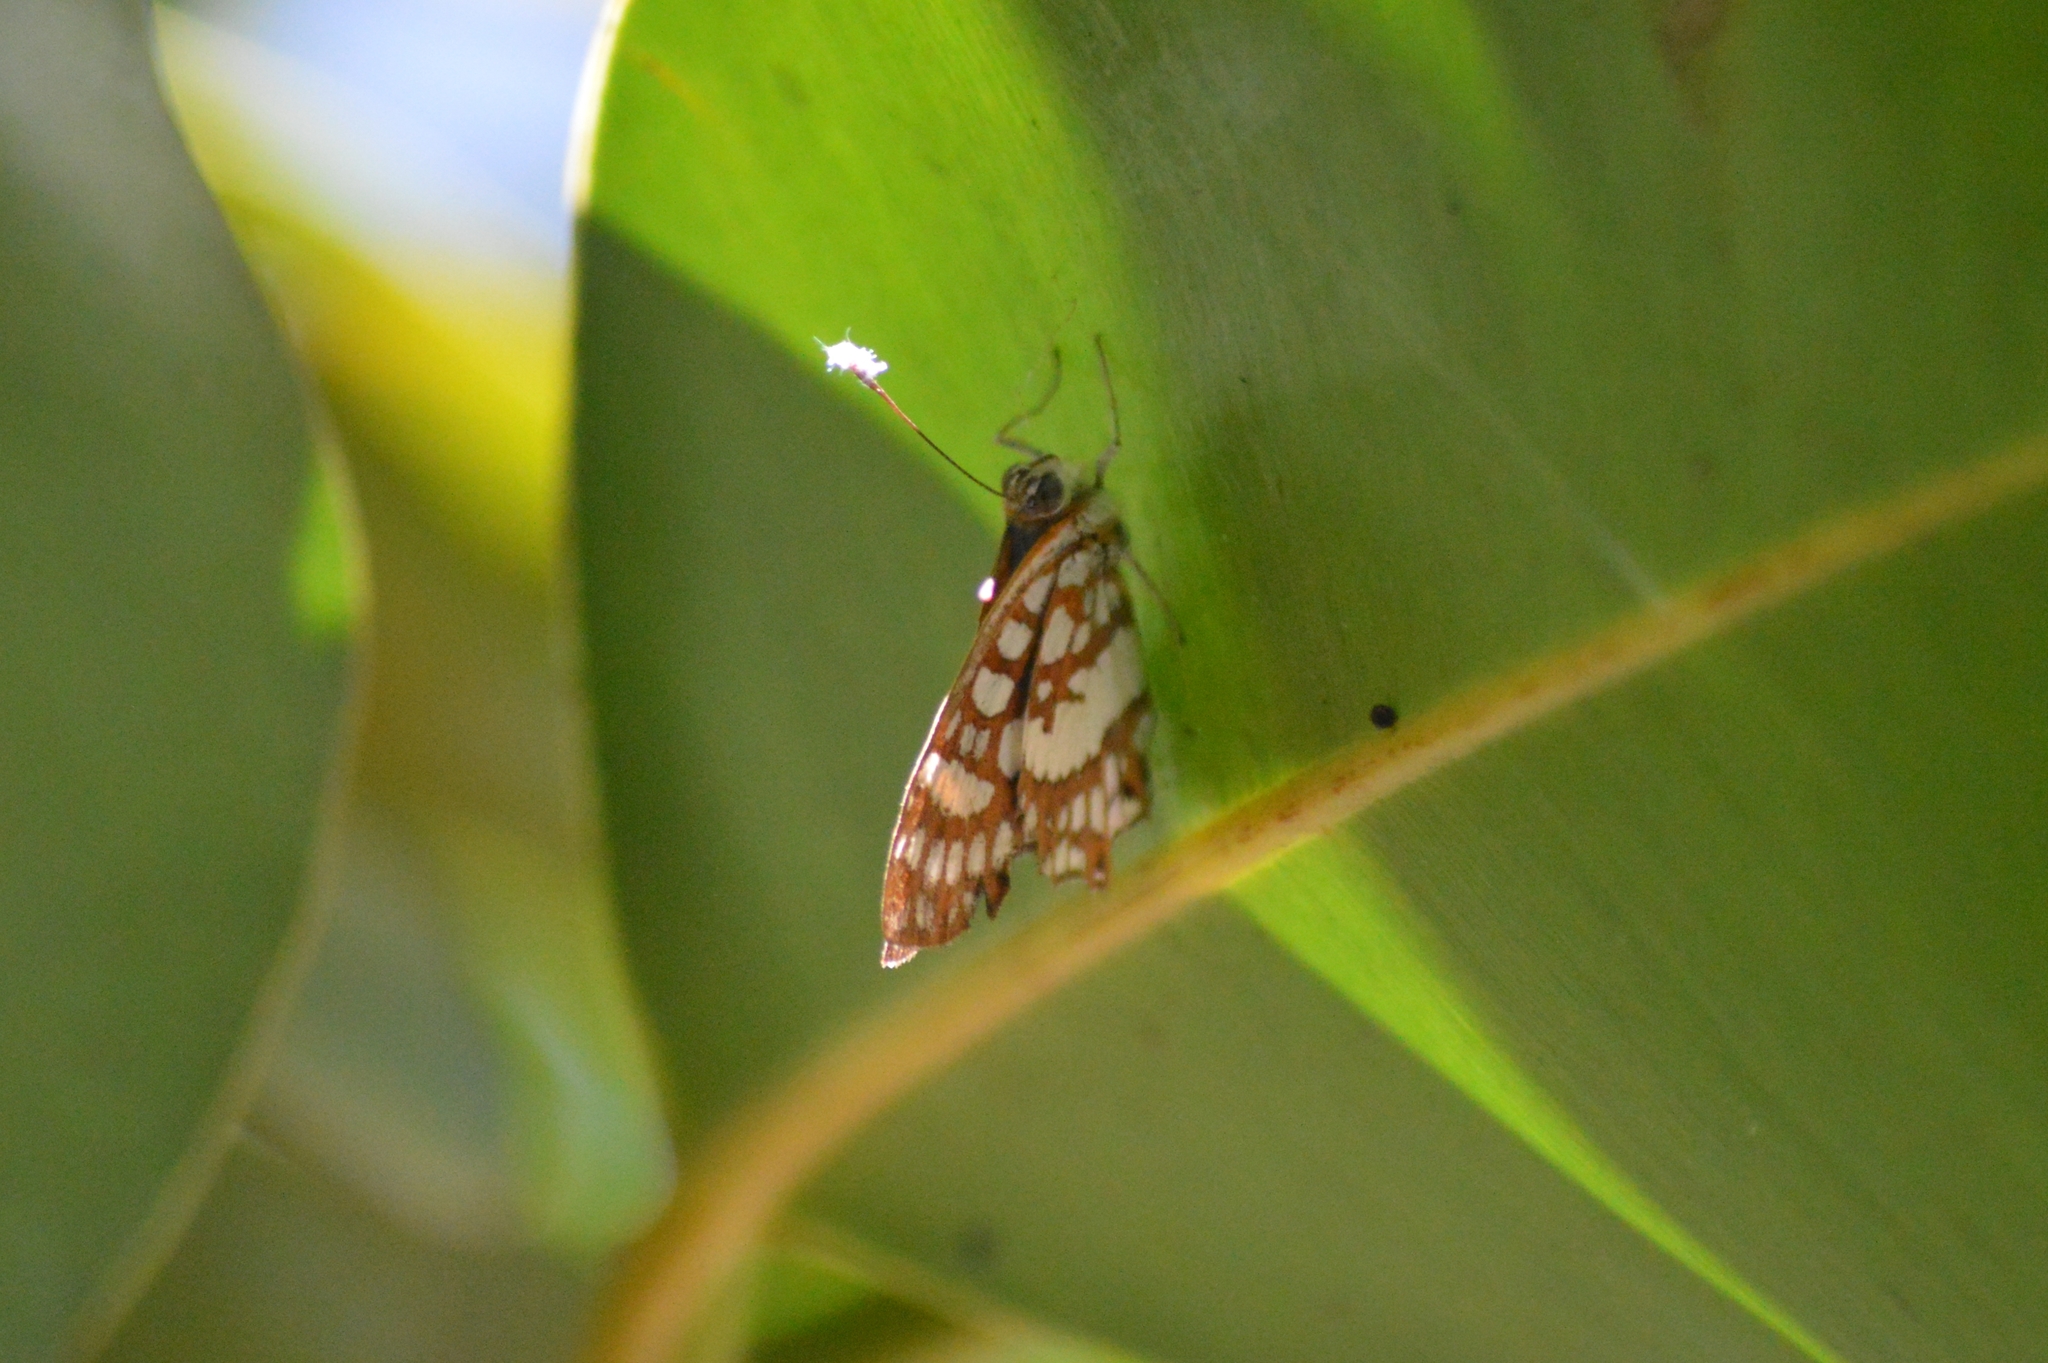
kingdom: Animalia
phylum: Arthropoda
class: Insecta
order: Lepidoptera
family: Riodinidae
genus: Ariconias
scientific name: Ariconias glaphyra
